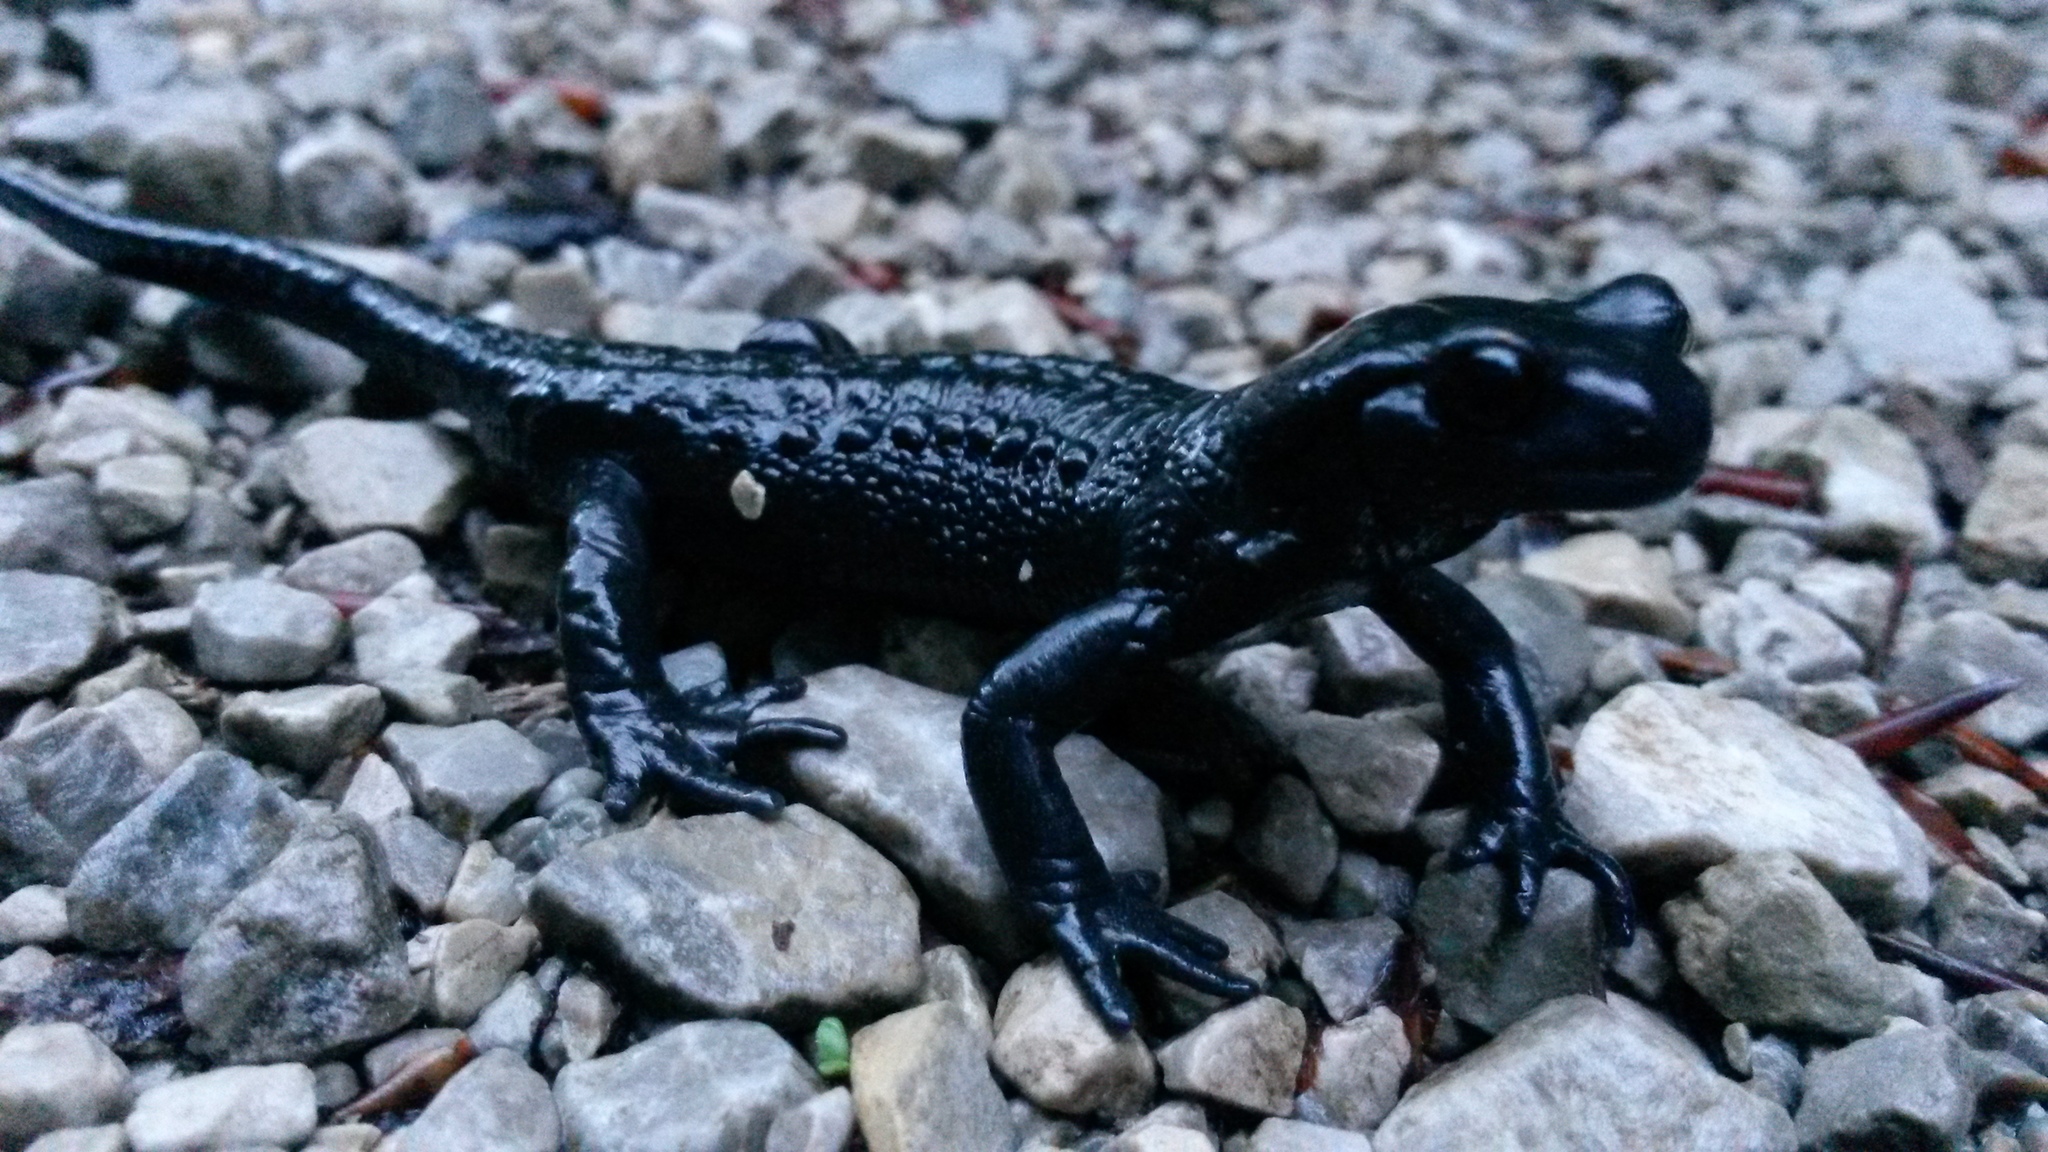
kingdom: Animalia
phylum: Chordata
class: Amphibia
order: Caudata
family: Salamandridae
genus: Salamandra
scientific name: Salamandra atra
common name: Alpine salamander
